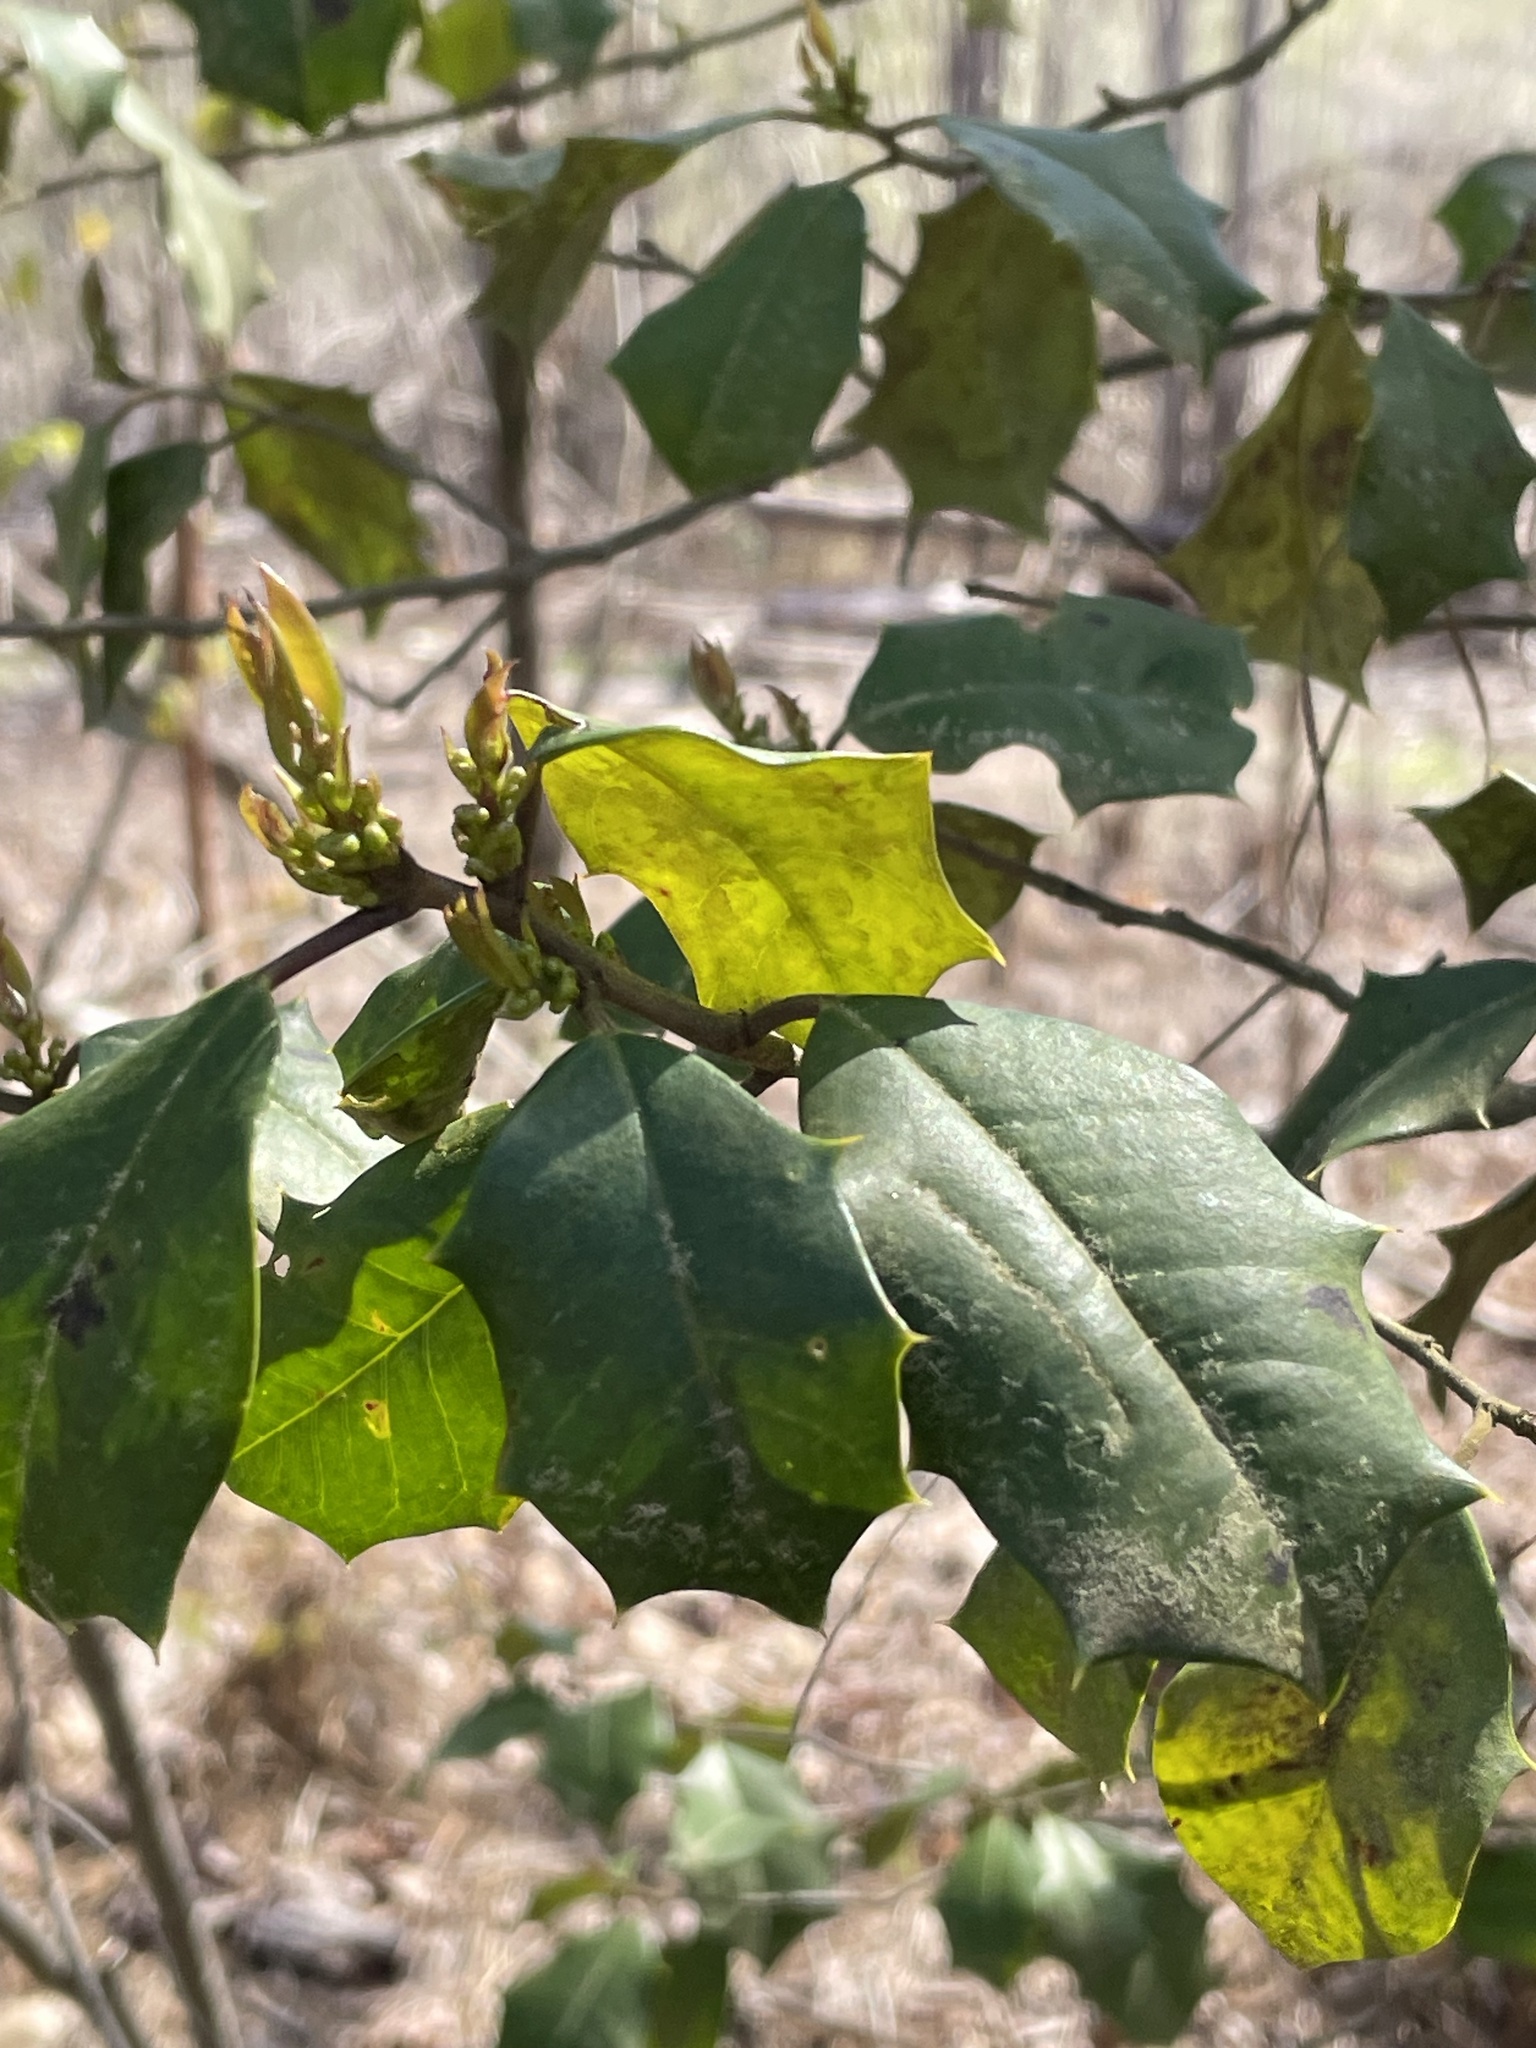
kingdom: Plantae
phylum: Tracheophyta
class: Magnoliopsida
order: Aquifoliales
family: Aquifoliaceae
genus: Ilex
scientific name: Ilex opaca
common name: American holly
